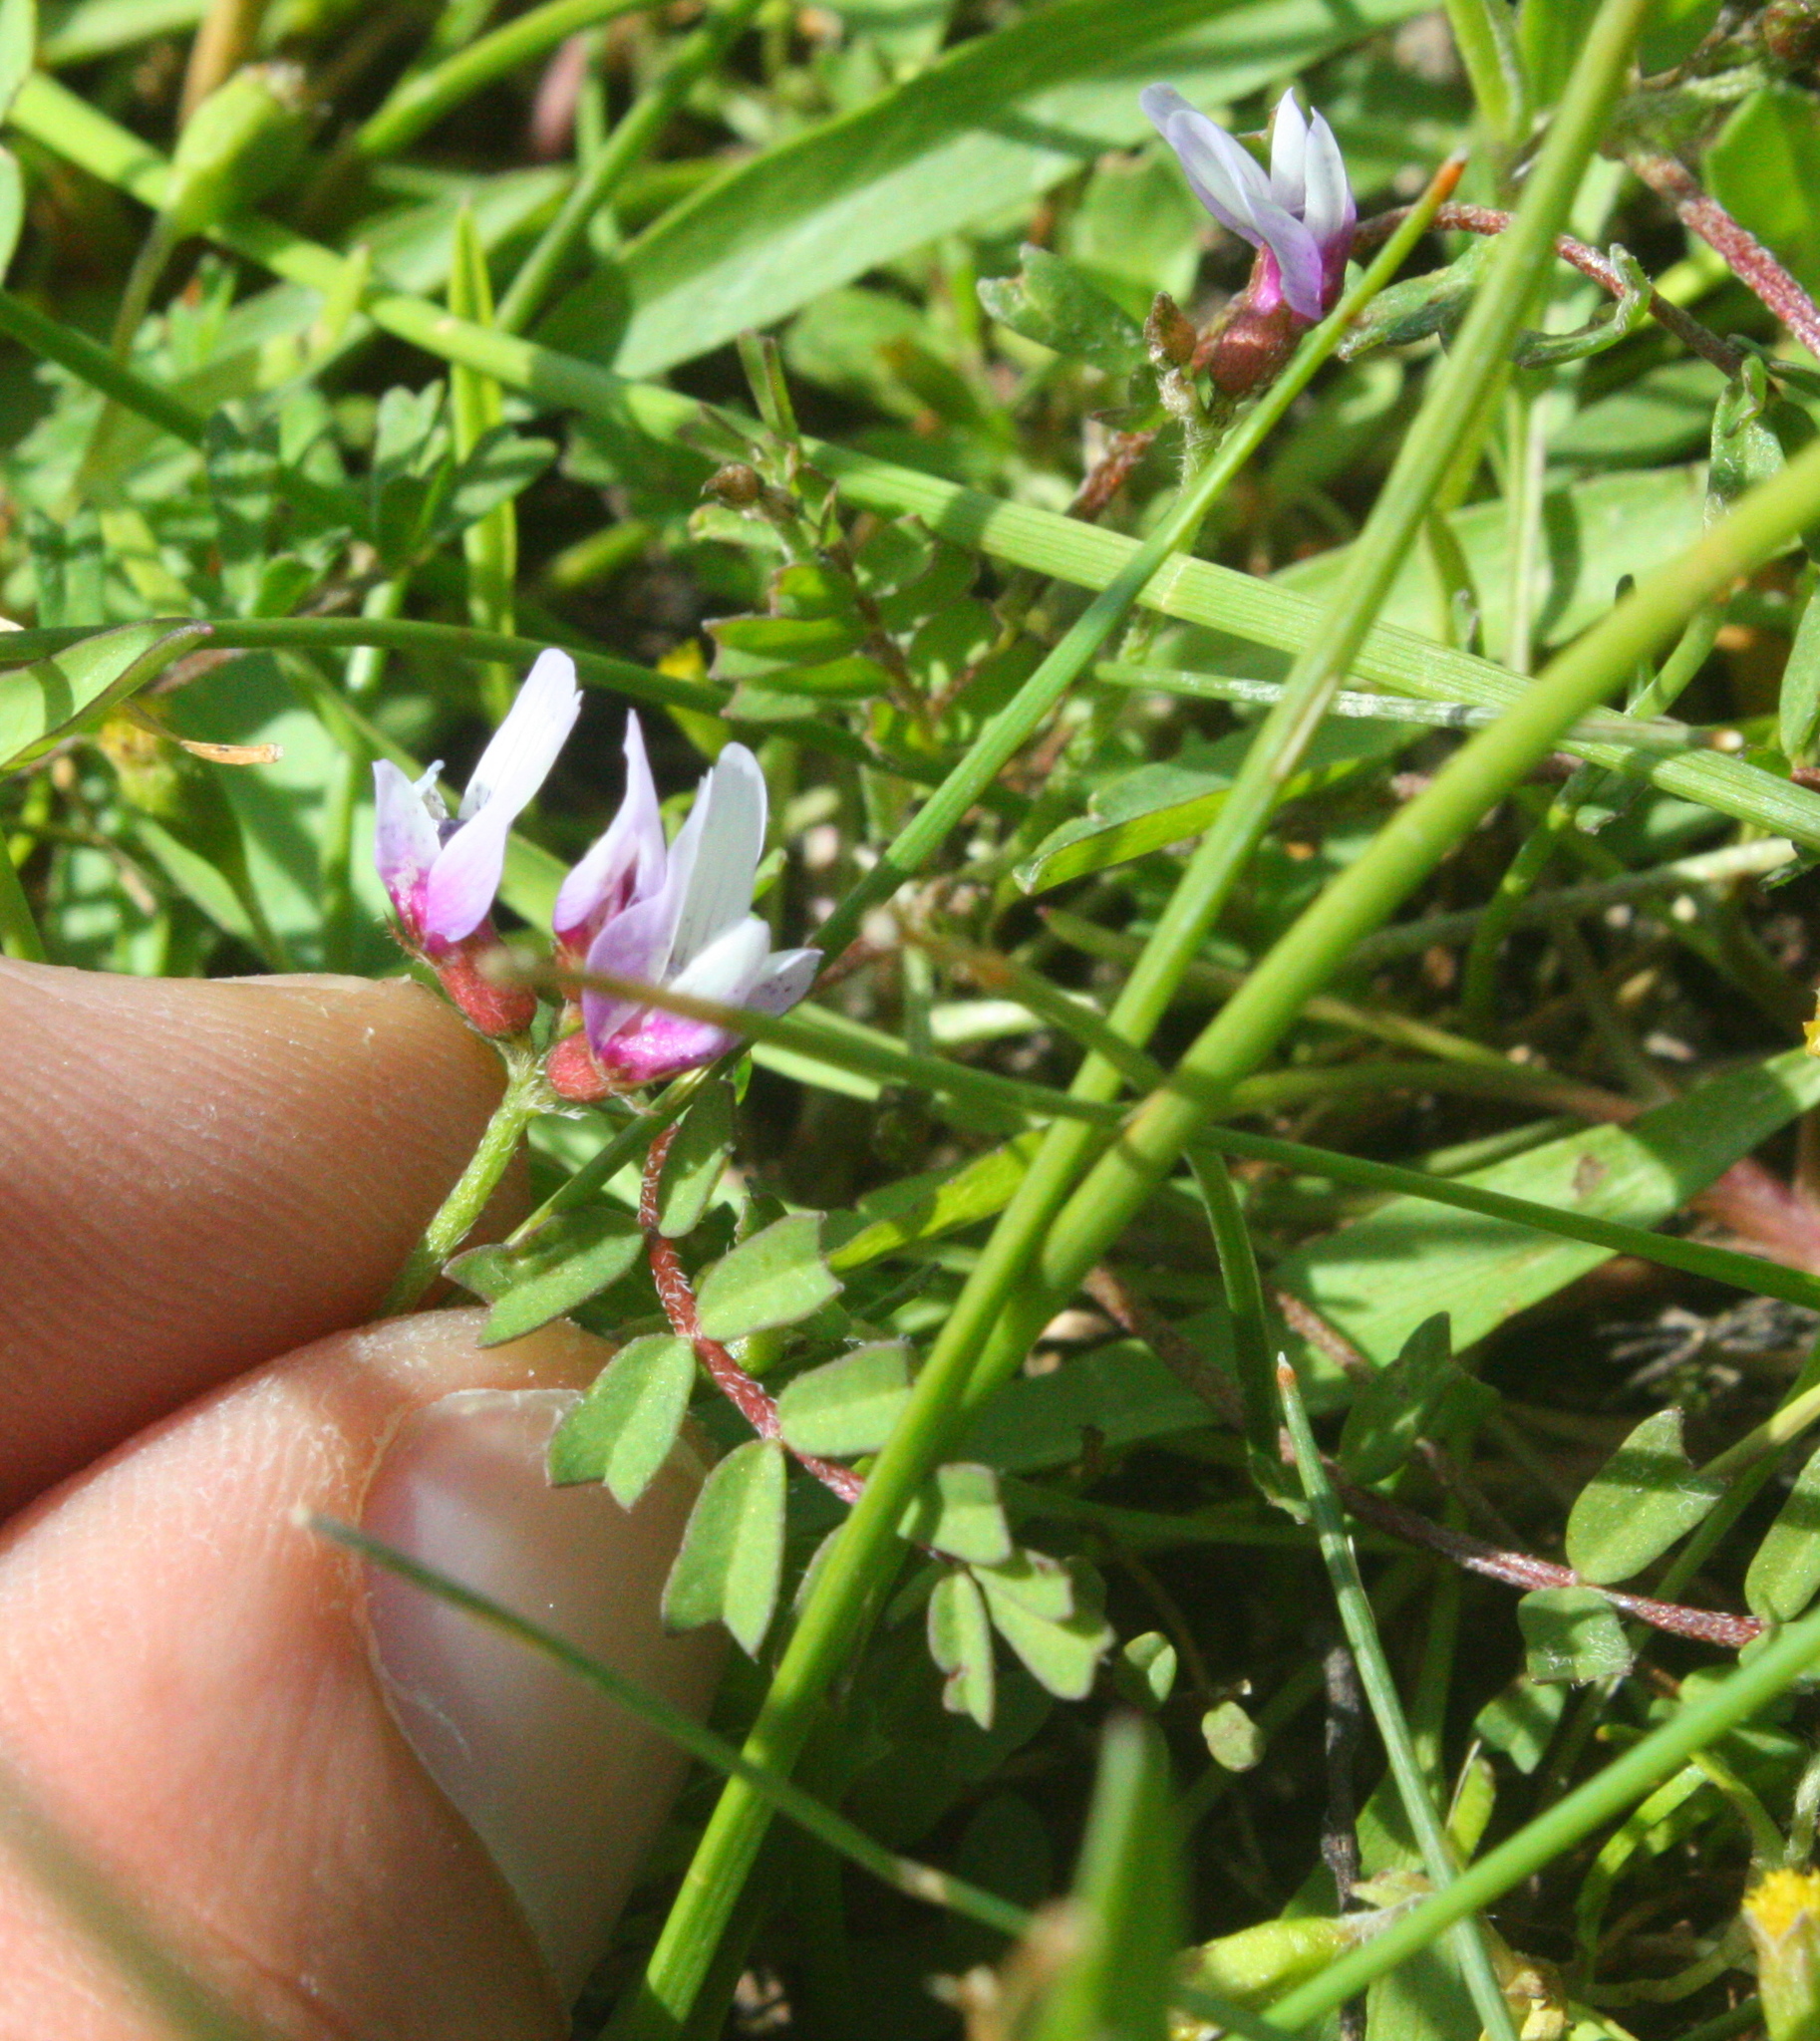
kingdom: Plantae
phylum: Tracheophyta
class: Magnoliopsida
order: Fabales
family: Fabaceae
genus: Astragalus
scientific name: Astragalus tener
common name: Gray slender milkvetch
